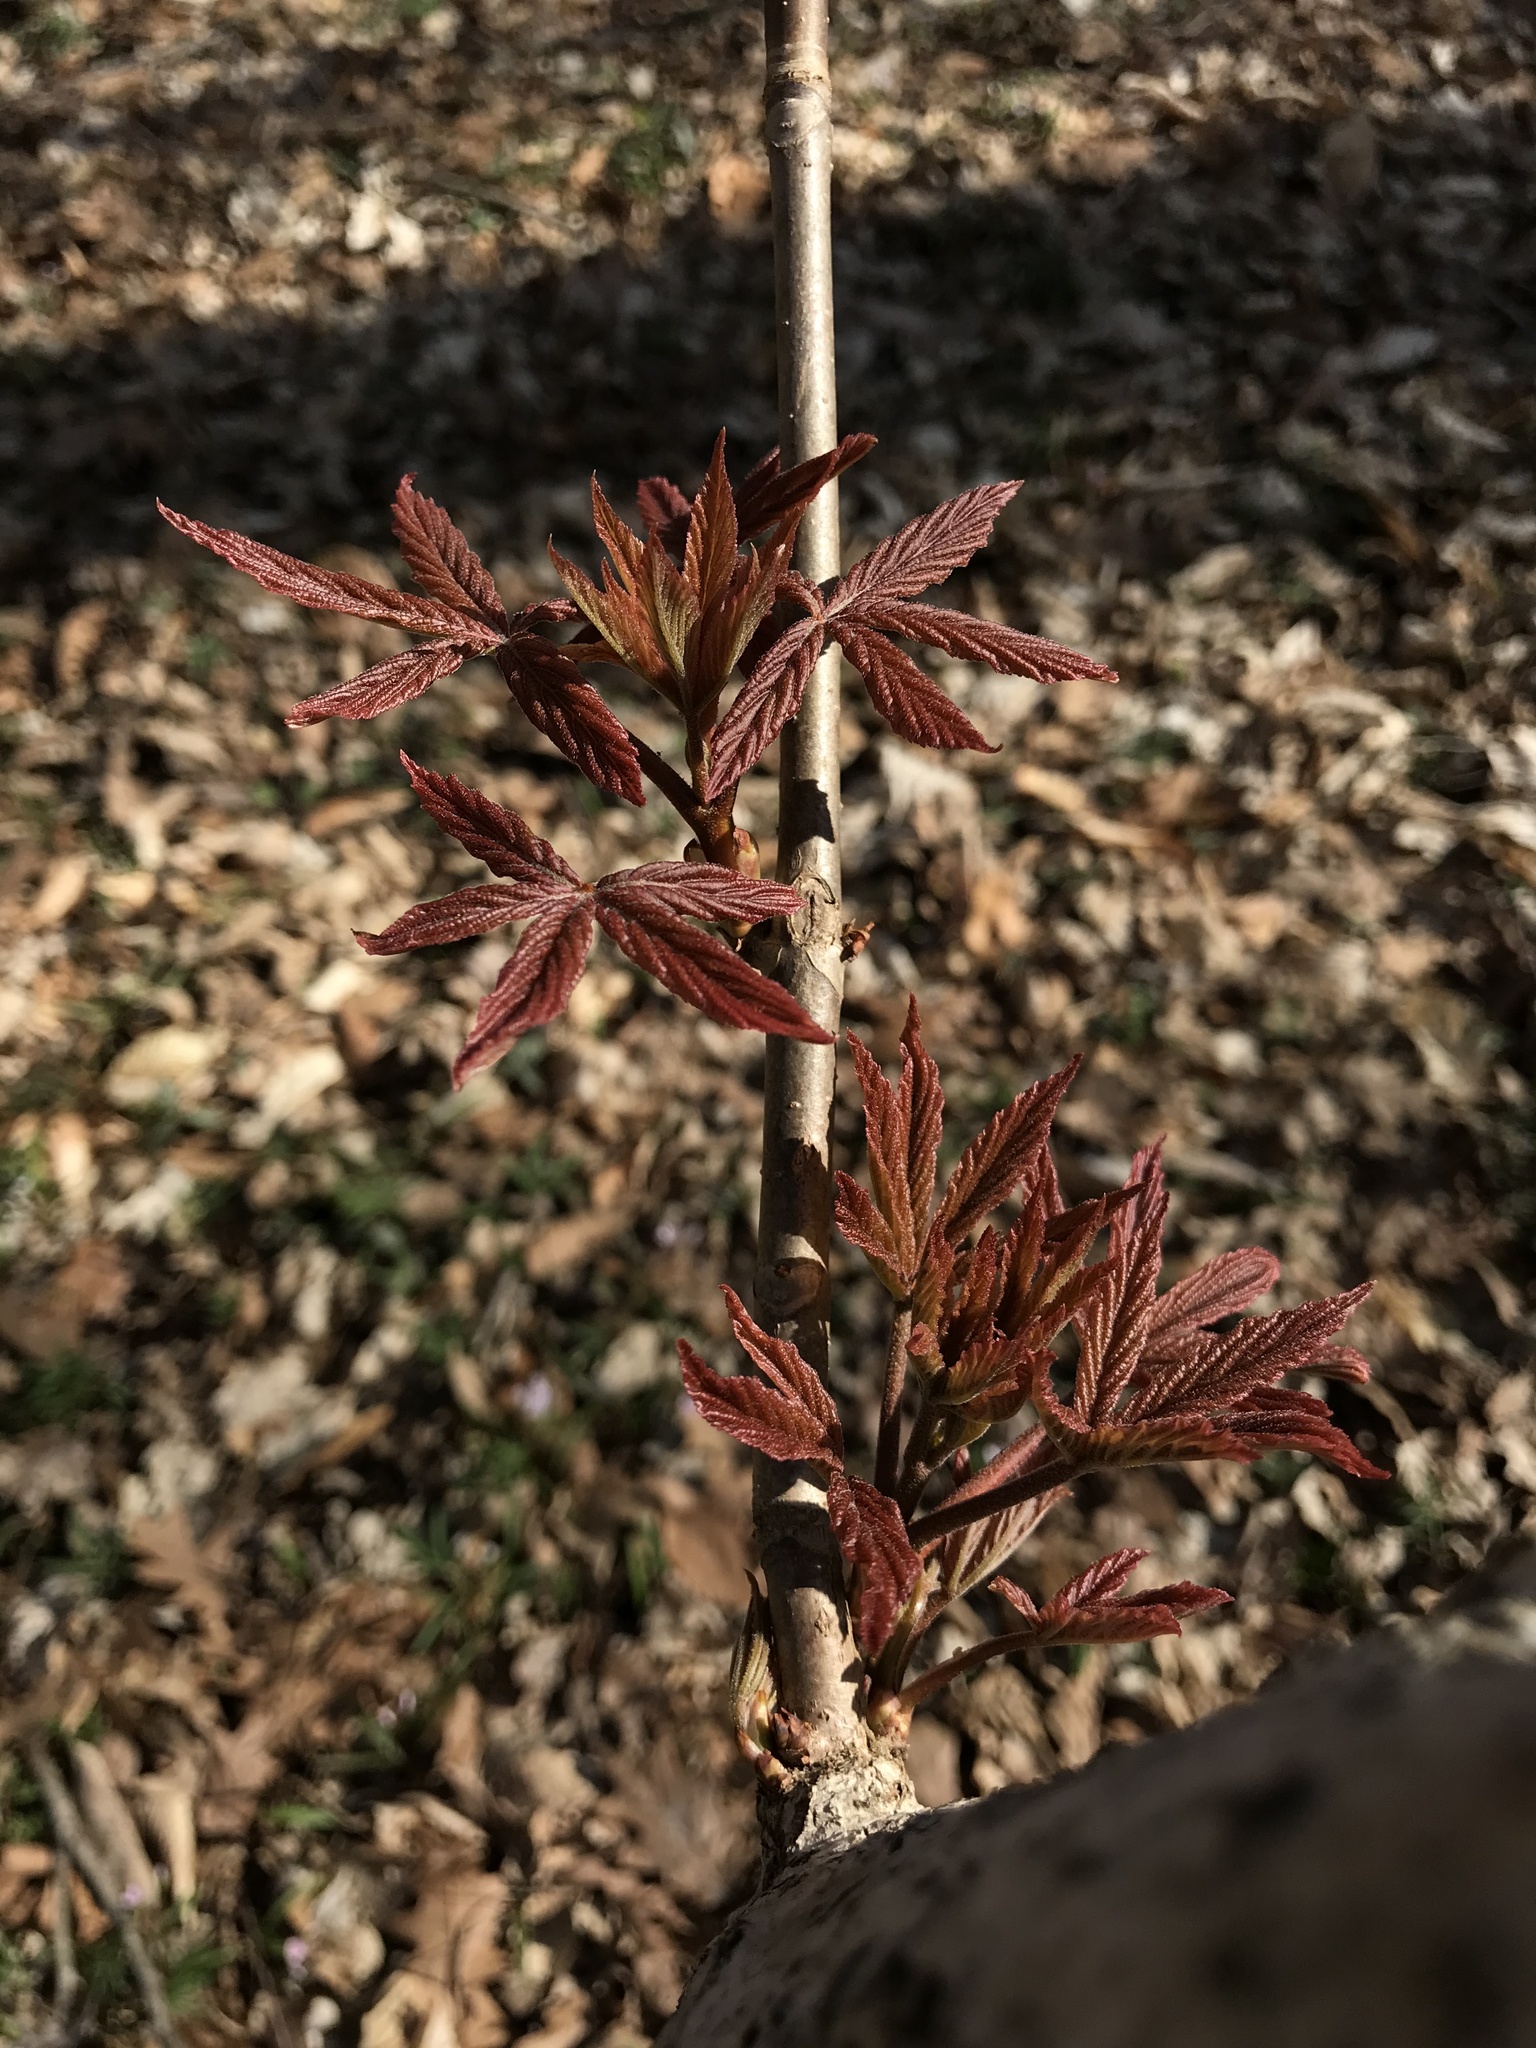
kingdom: Plantae
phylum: Tracheophyta
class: Magnoliopsida
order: Sapindales
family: Sapindaceae
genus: Aesculus
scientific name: Aesculus glabra
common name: Ohio buckeye
